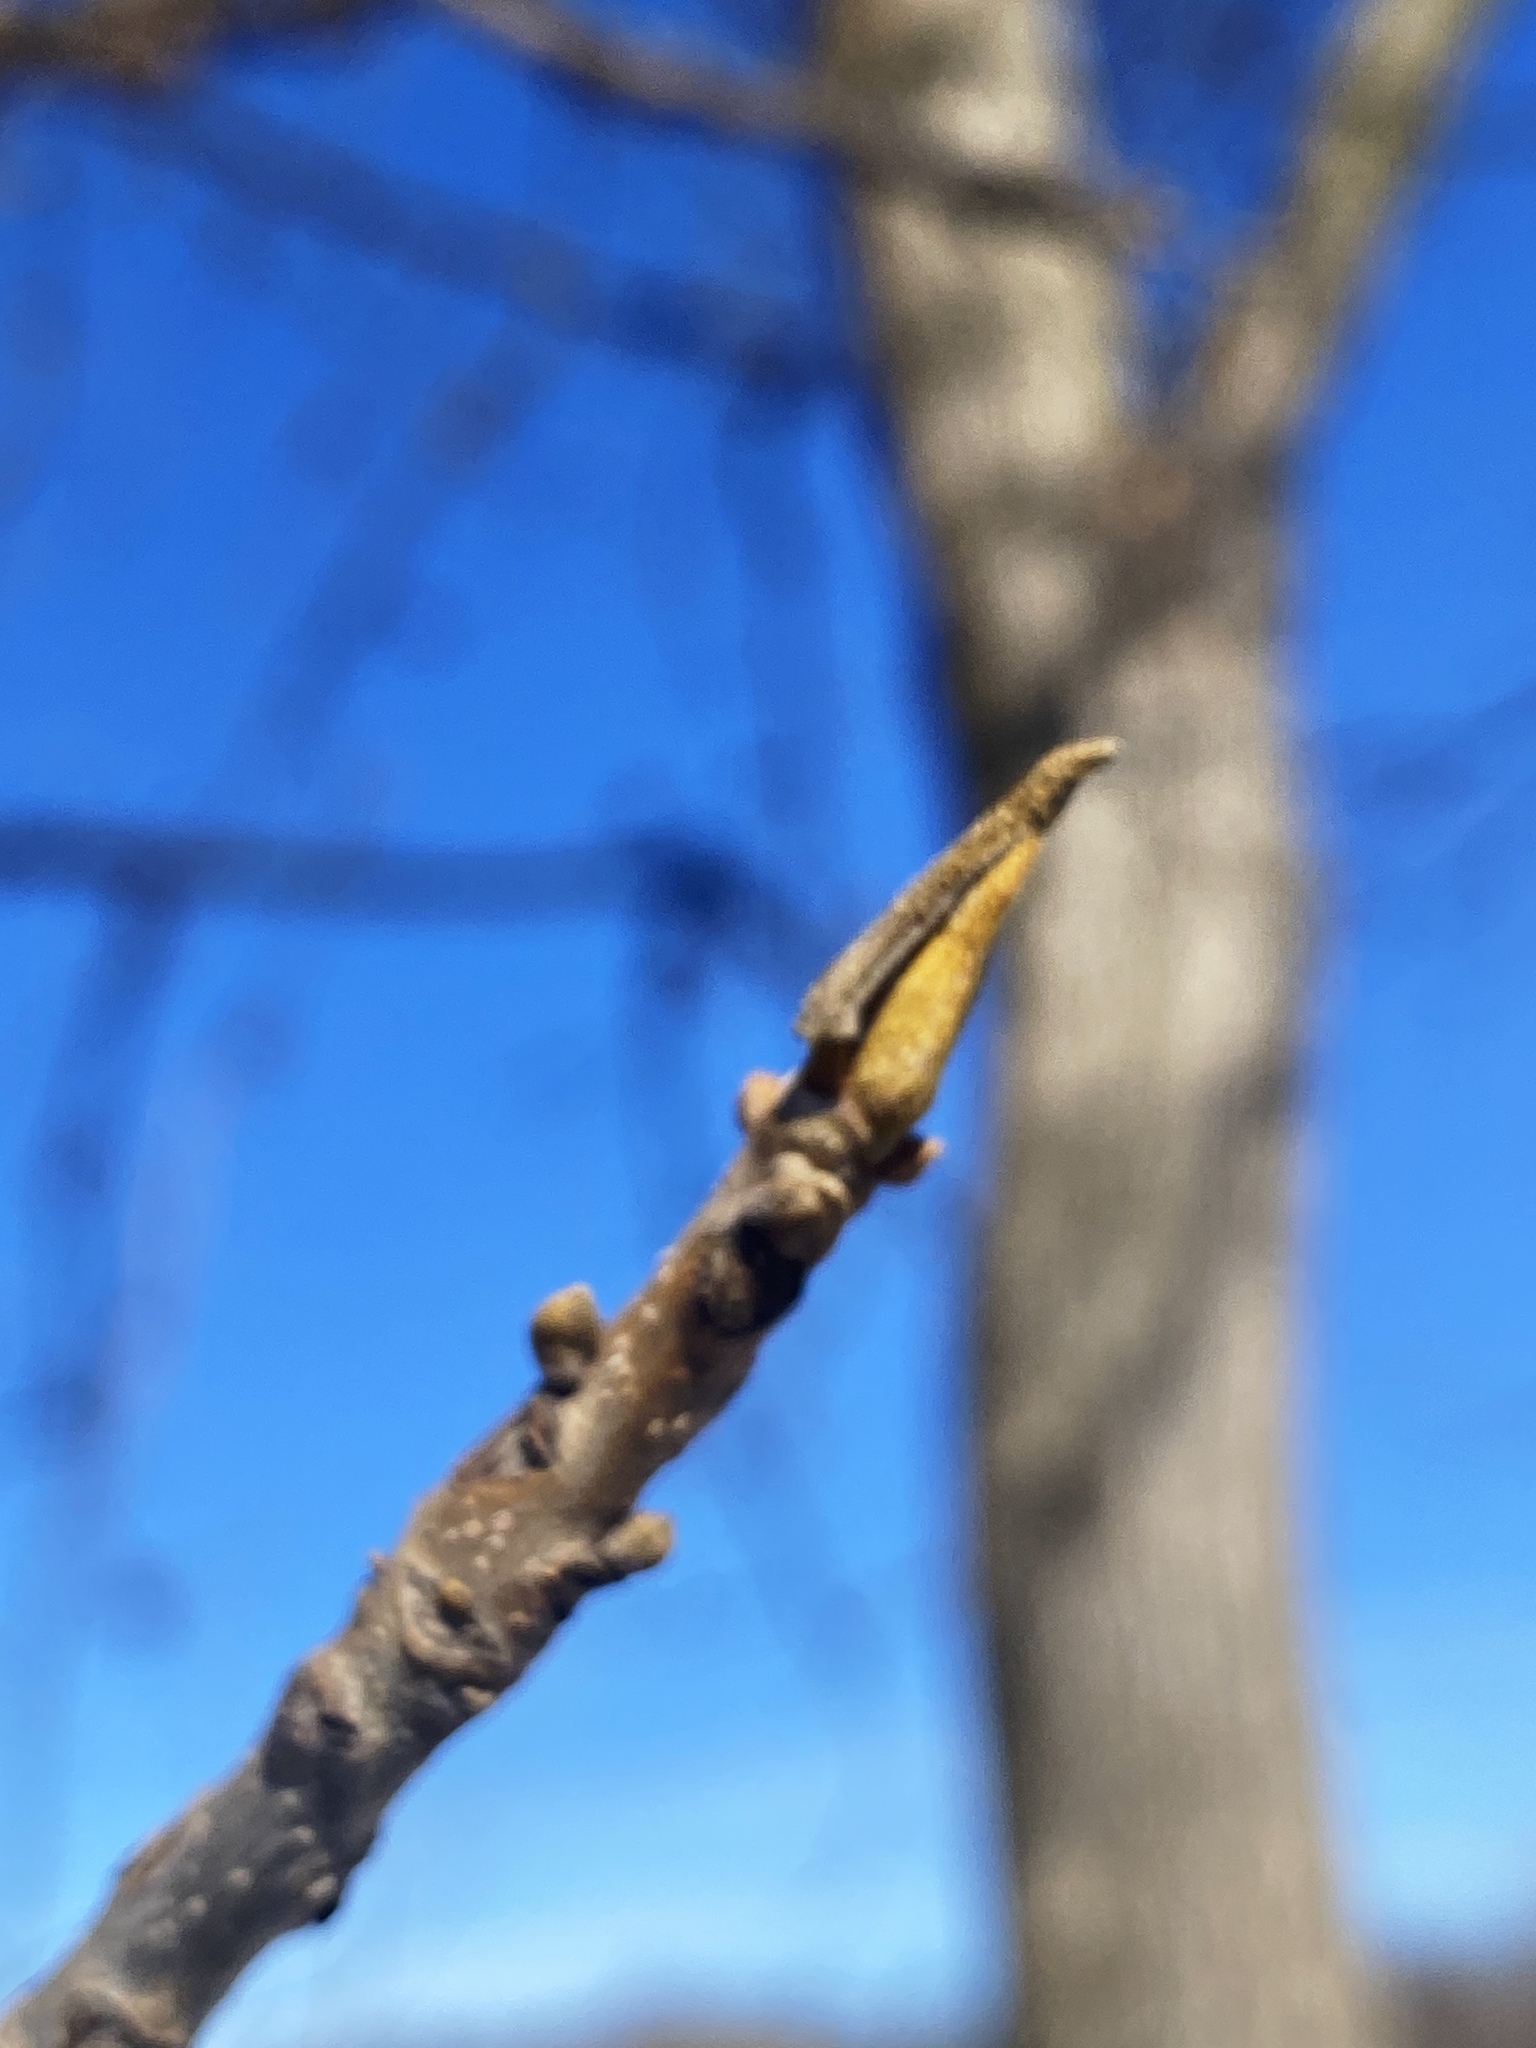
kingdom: Plantae
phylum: Tracheophyta
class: Magnoliopsida
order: Fagales
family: Juglandaceae
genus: Carya
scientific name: Carya cordiformis
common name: Bitternut hickory
